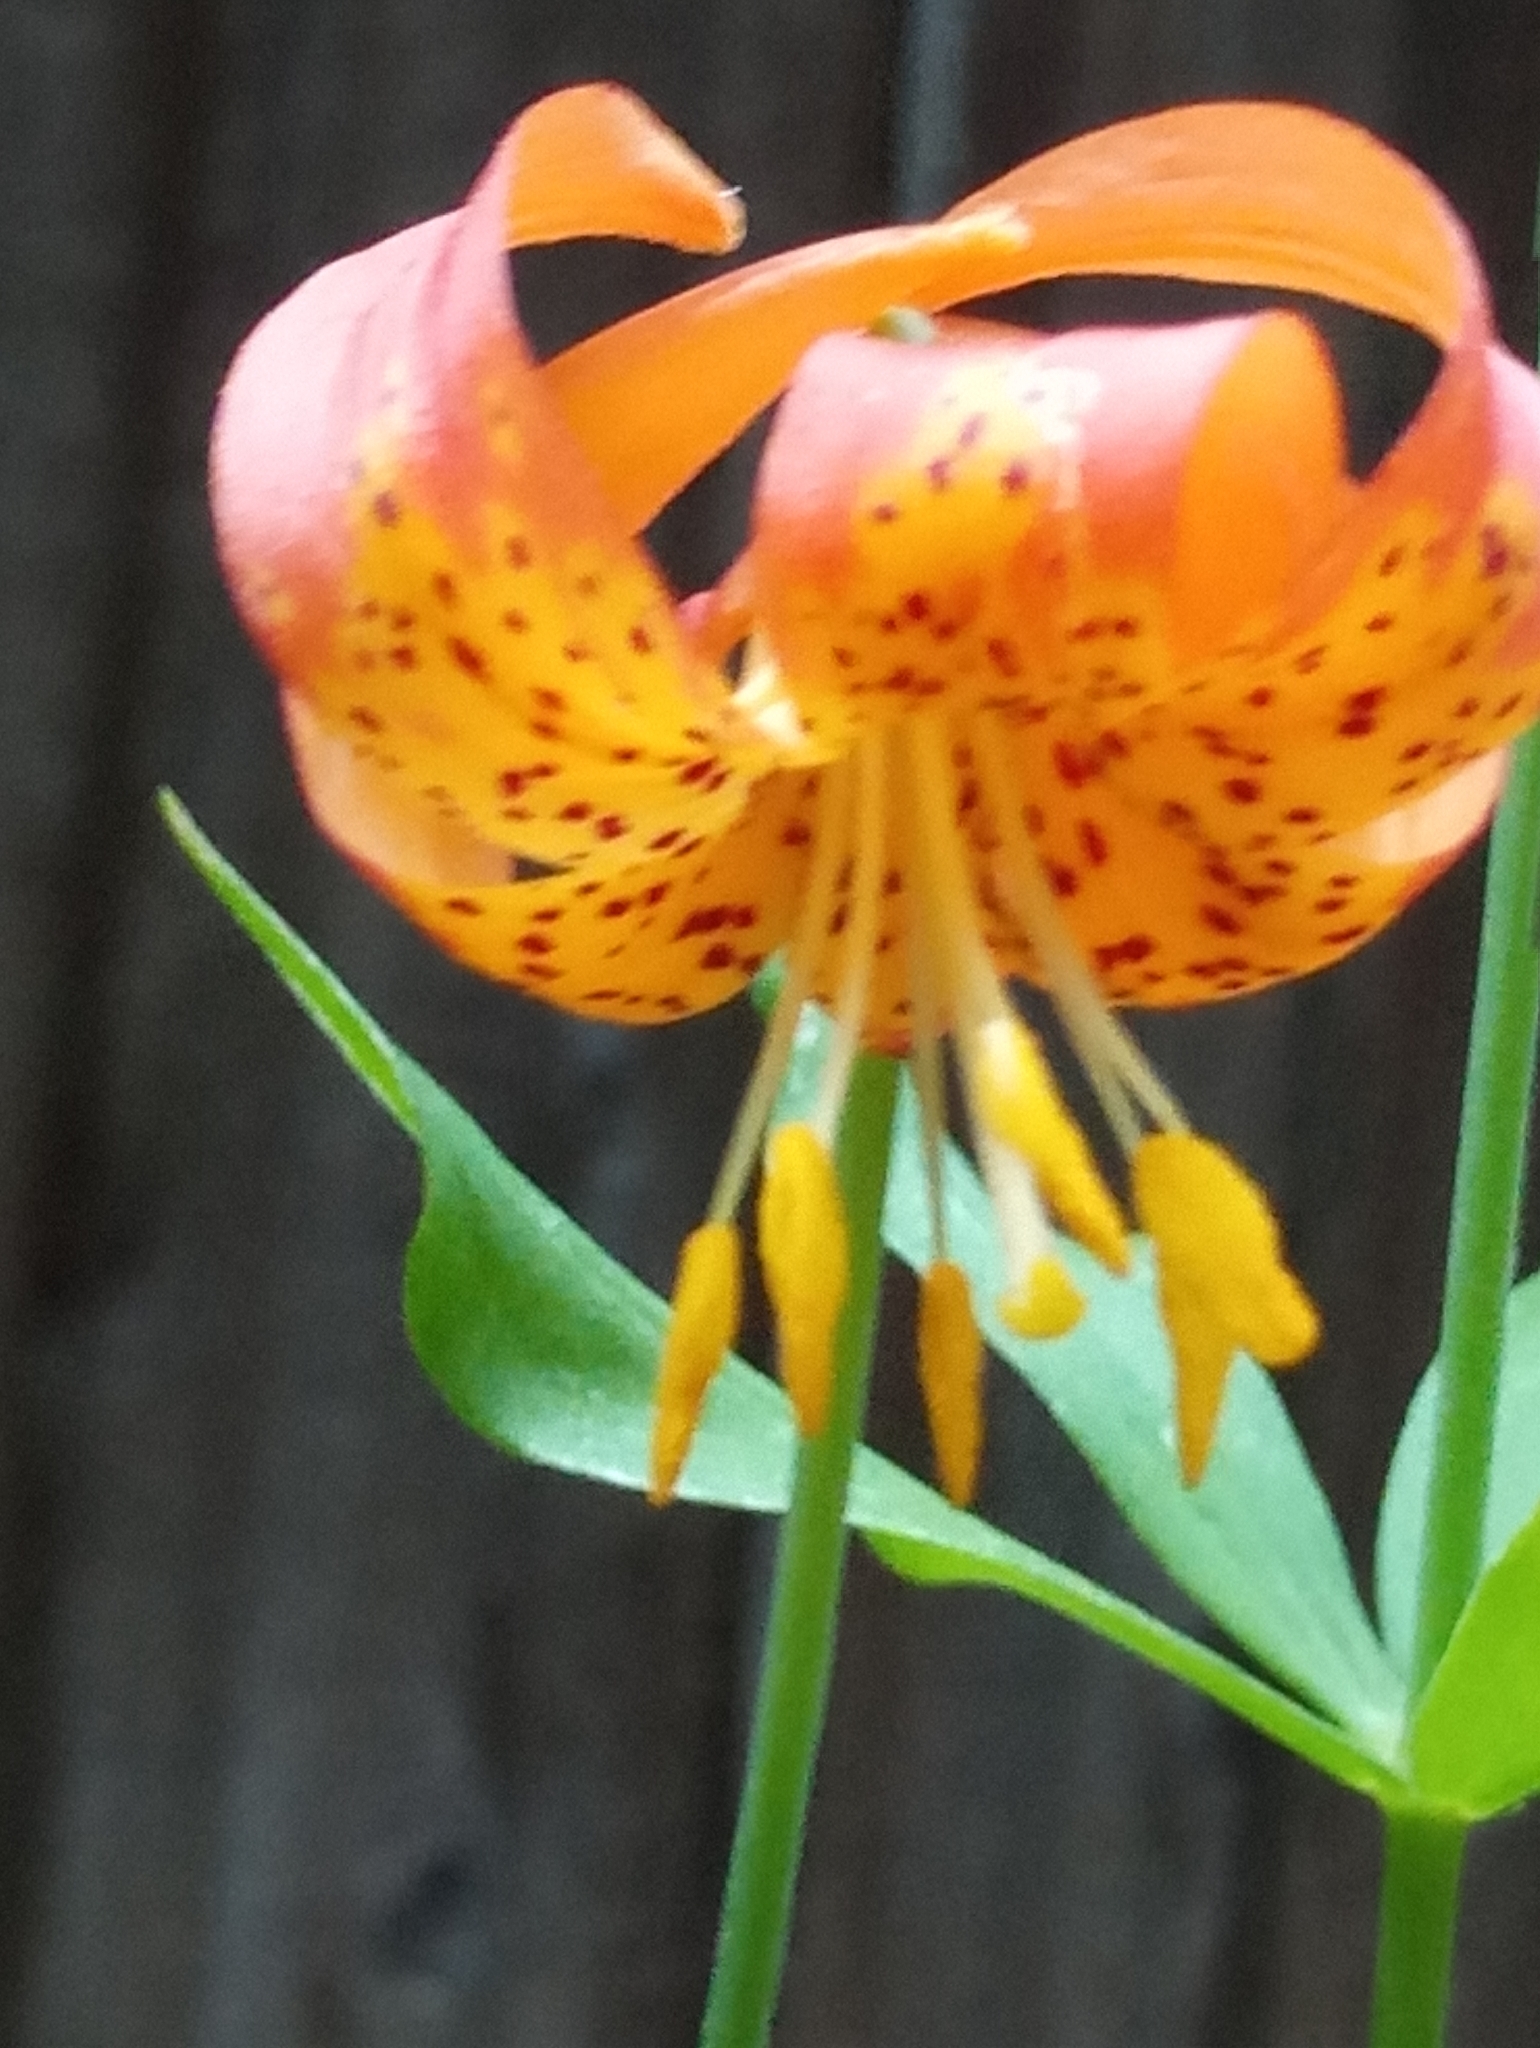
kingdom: Plantae
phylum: Tracheophyta
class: Liliopsida
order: Liliales
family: Liliaceae
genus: Lilium
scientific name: Lilium pardalinum
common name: Panther lily
